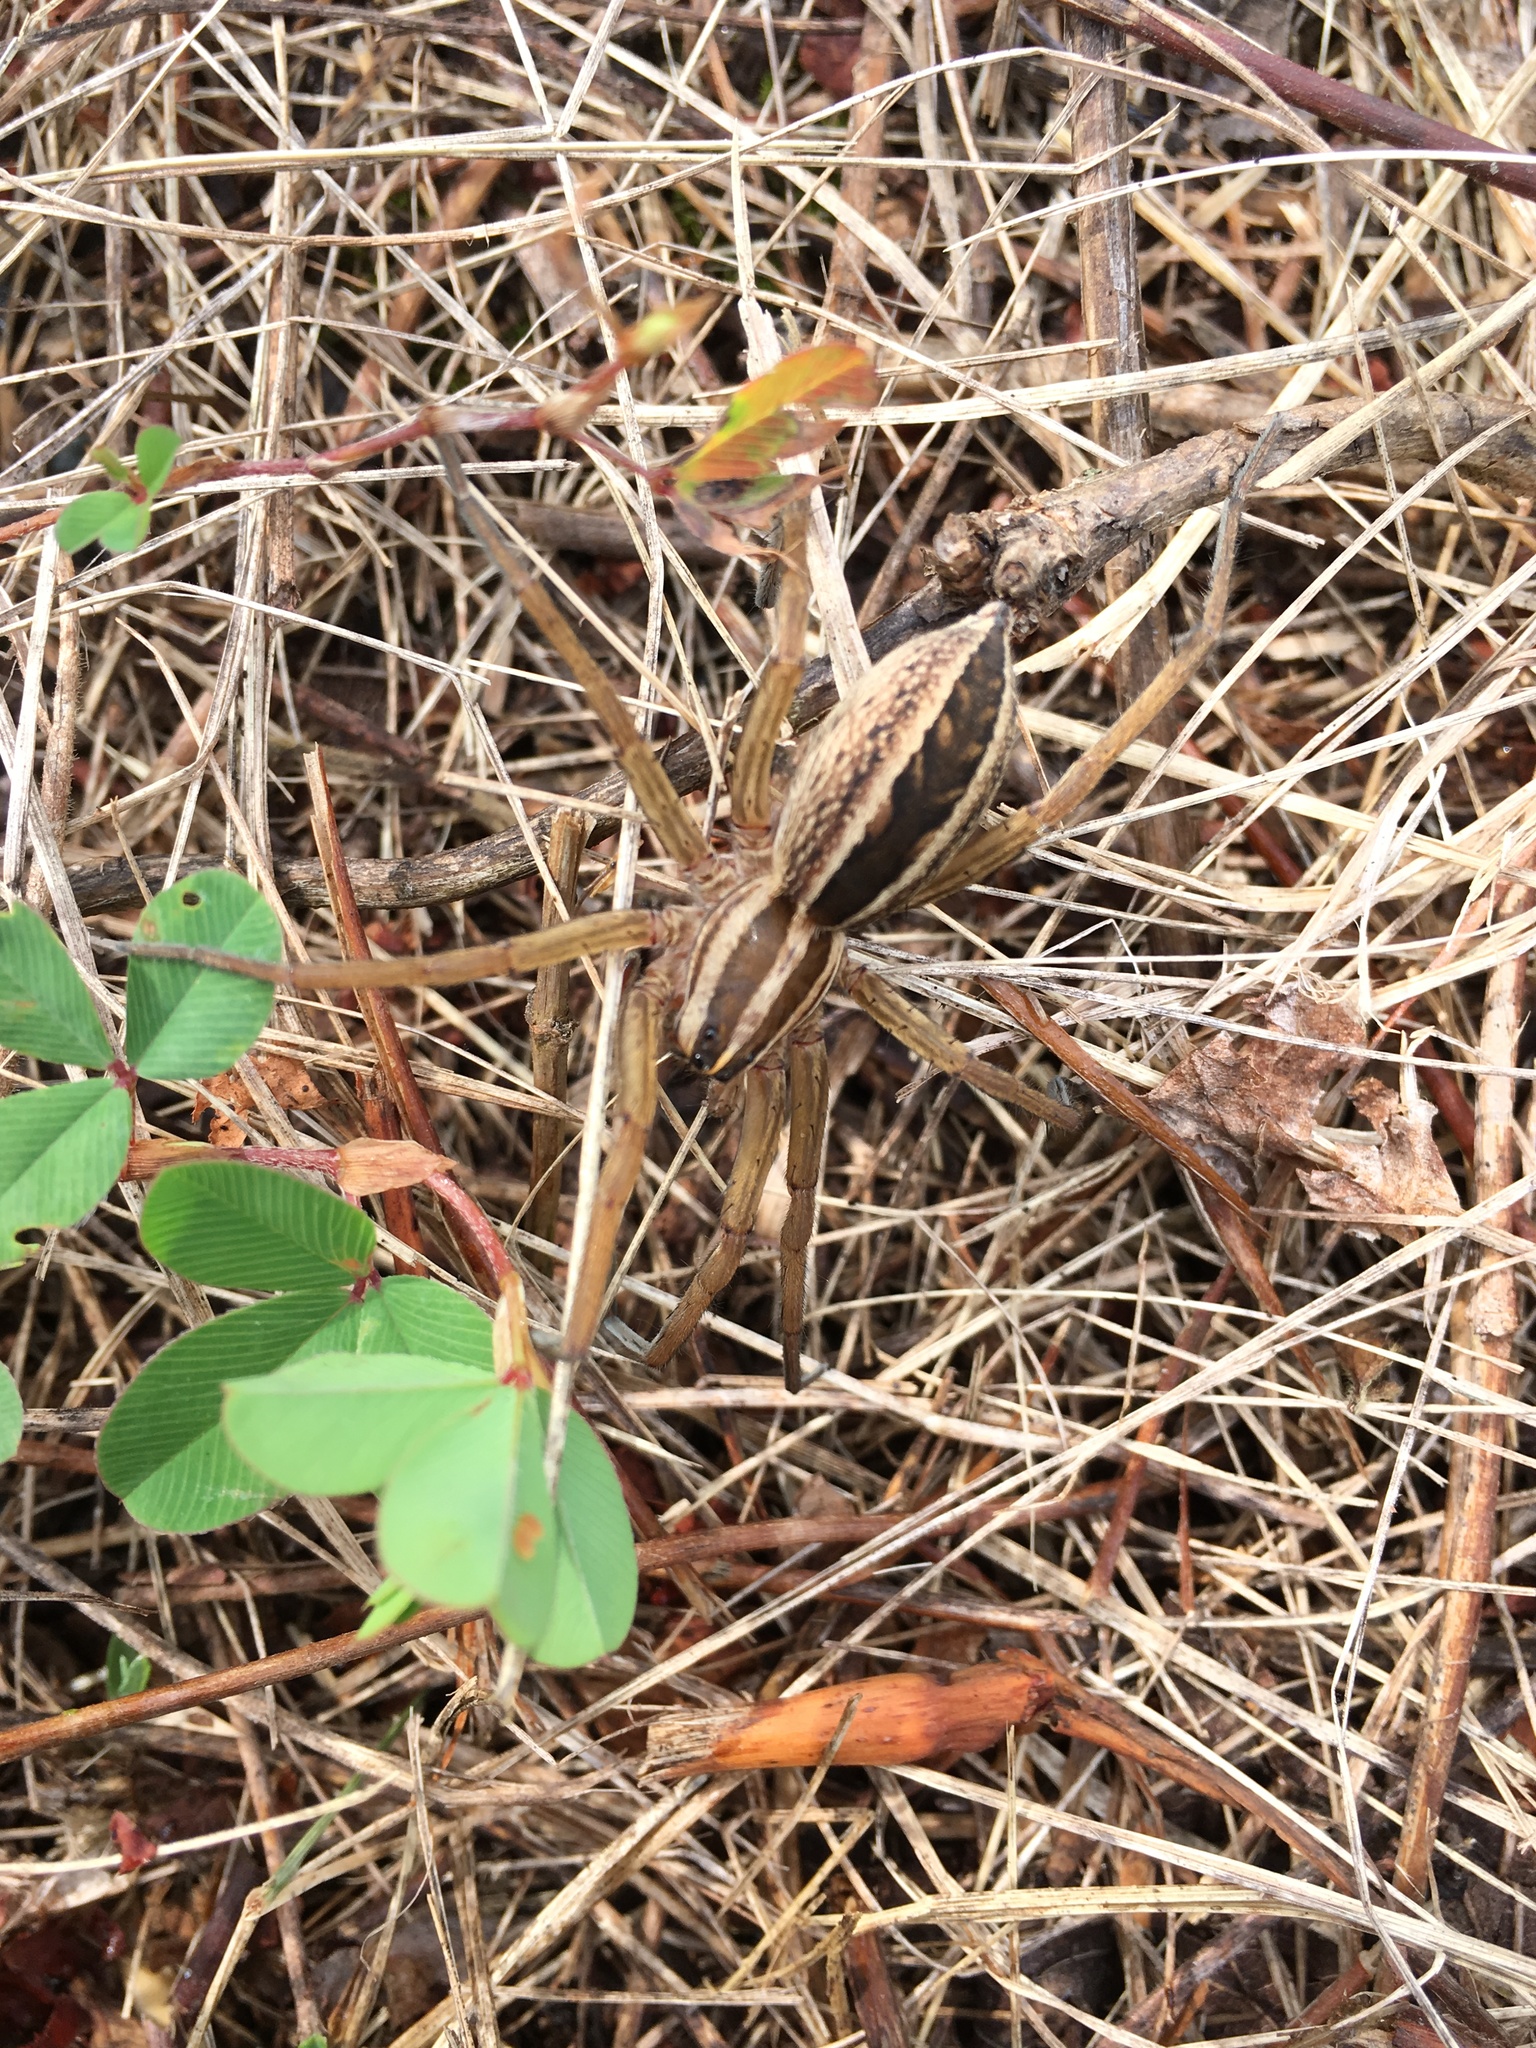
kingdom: Animalia
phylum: Arthropoda
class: Arachnida
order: Araneae
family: Lycosidae
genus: Rabidosa
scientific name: Rabidosa rabida
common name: Rabid wolf spider
